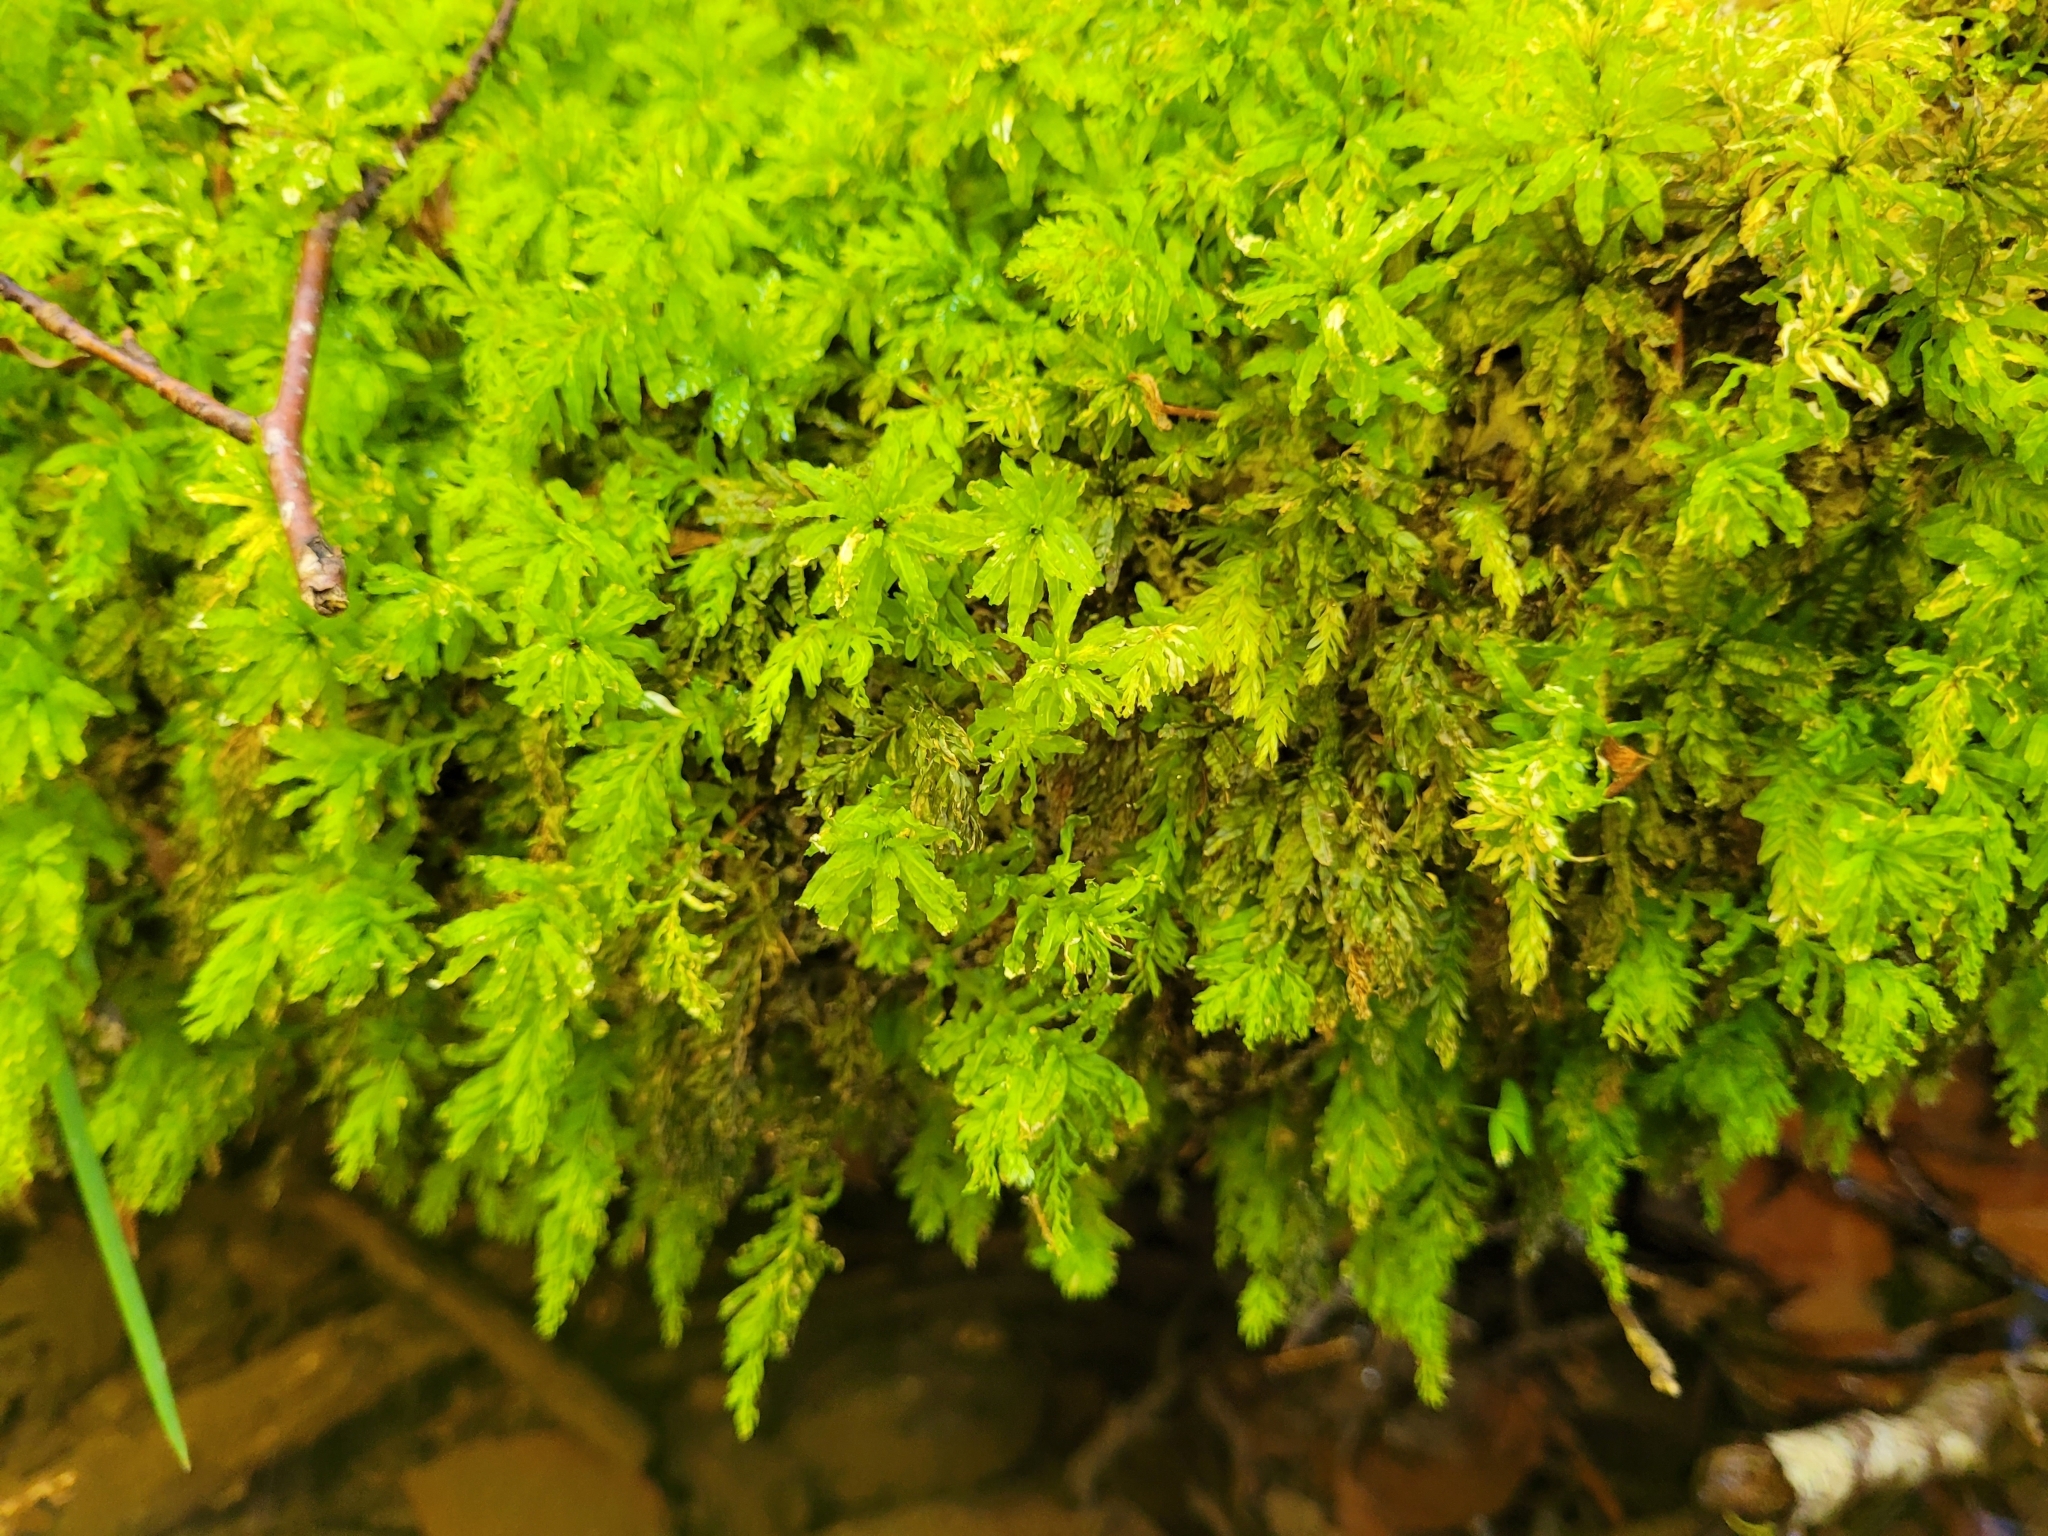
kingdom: Plantae
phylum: Bryophyta
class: Bryopsida
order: Bryales
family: Mniaceae
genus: Plagiomnium
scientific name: Plagiomnium undulatum
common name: Hart's-tongue thyme-moss
